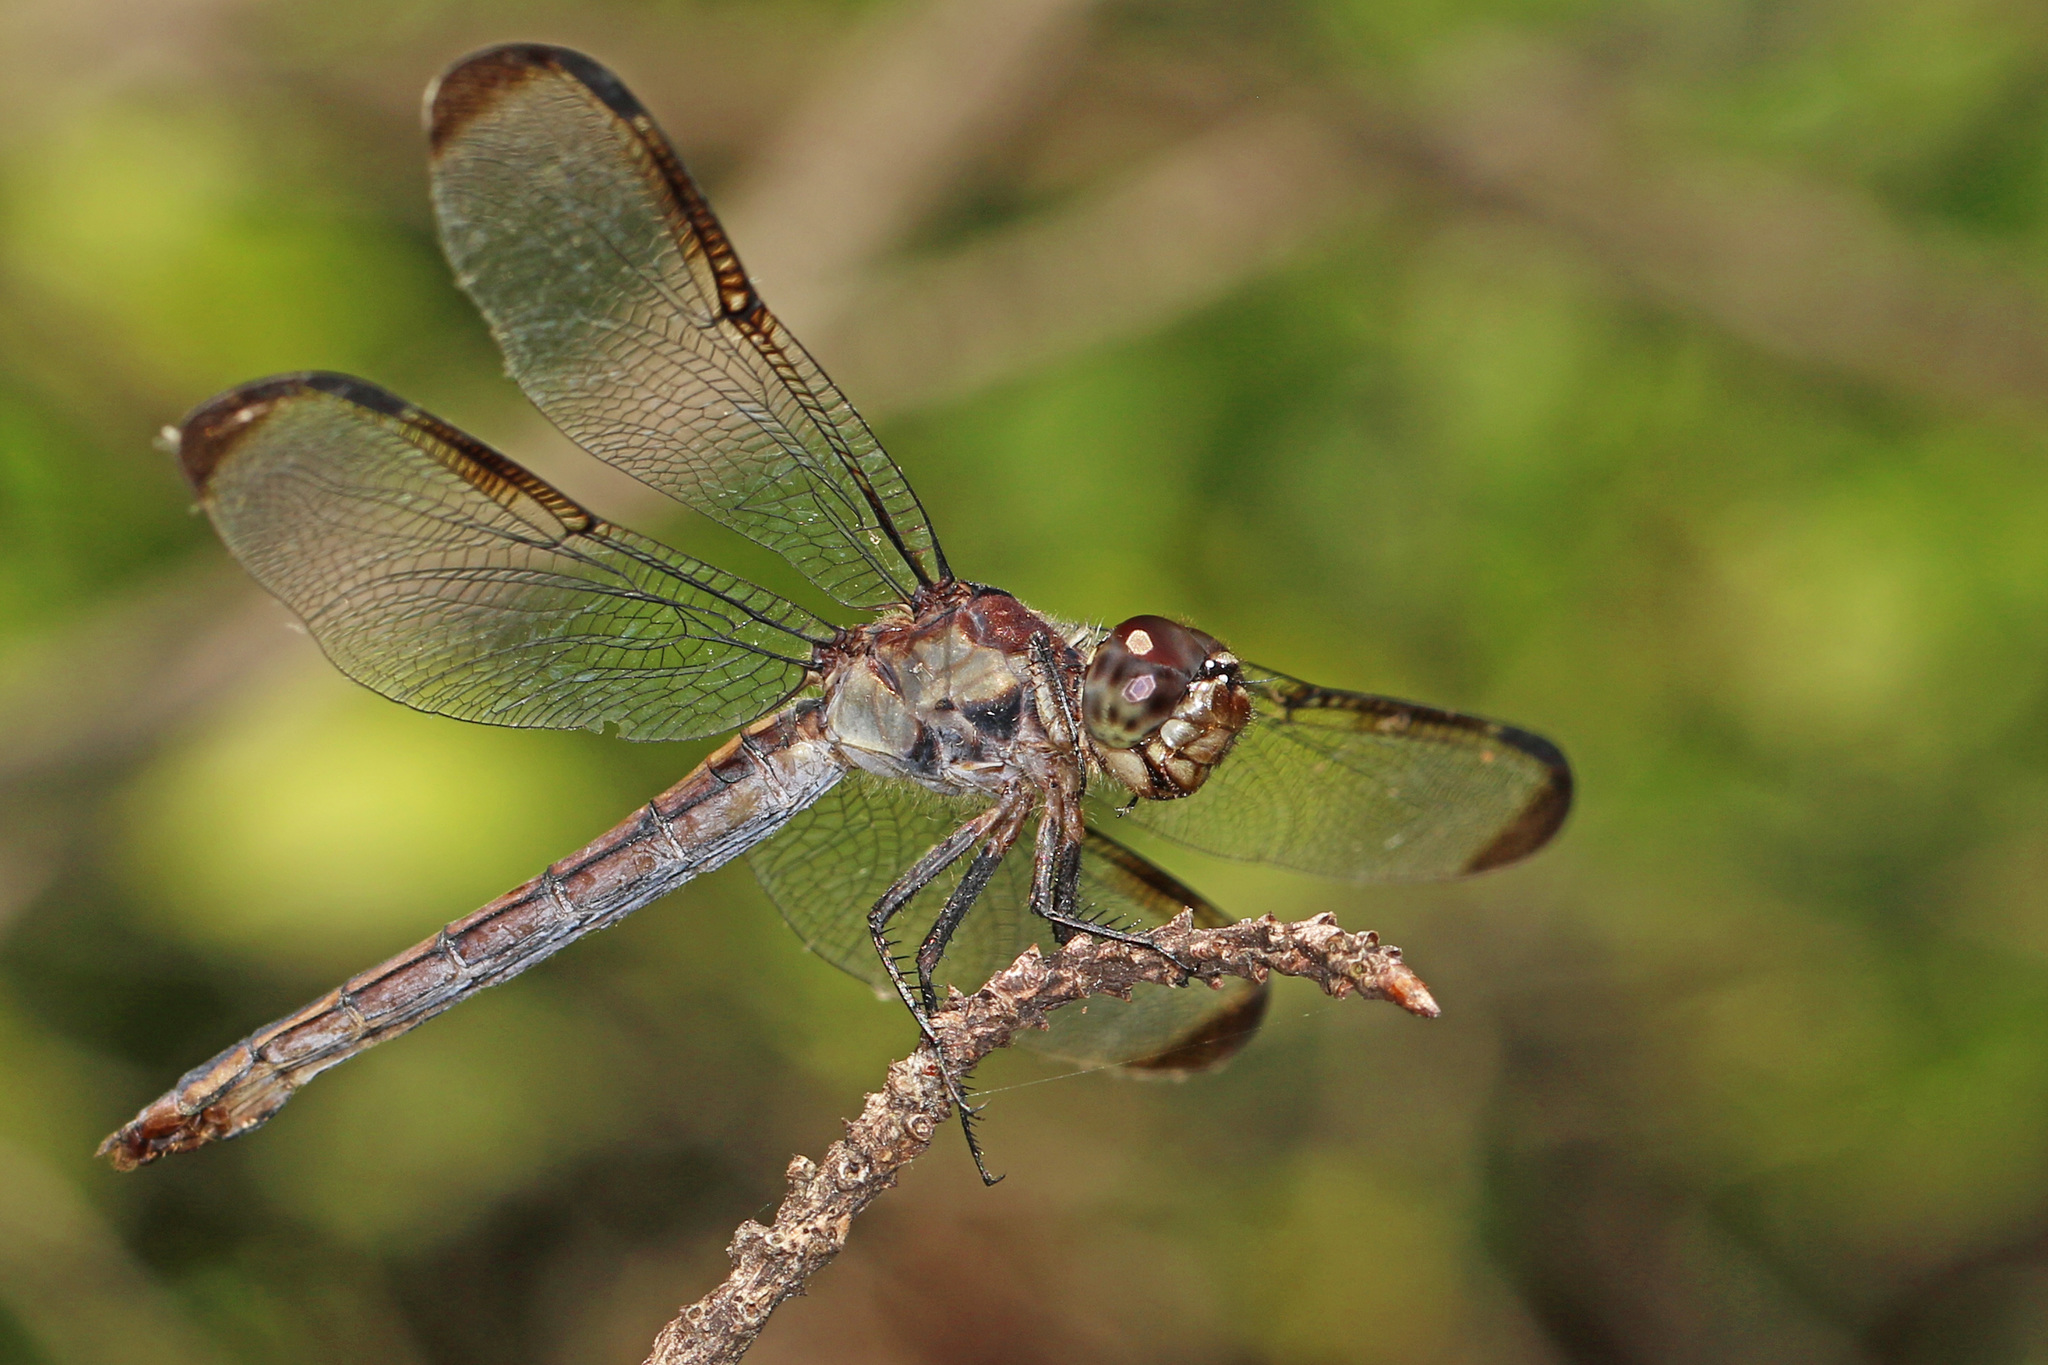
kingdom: Animalia
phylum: Arthropoda
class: Insecta
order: Odonata
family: Libellulidae
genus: Libellula
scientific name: Libellula incesta
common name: Slaty skimmer
